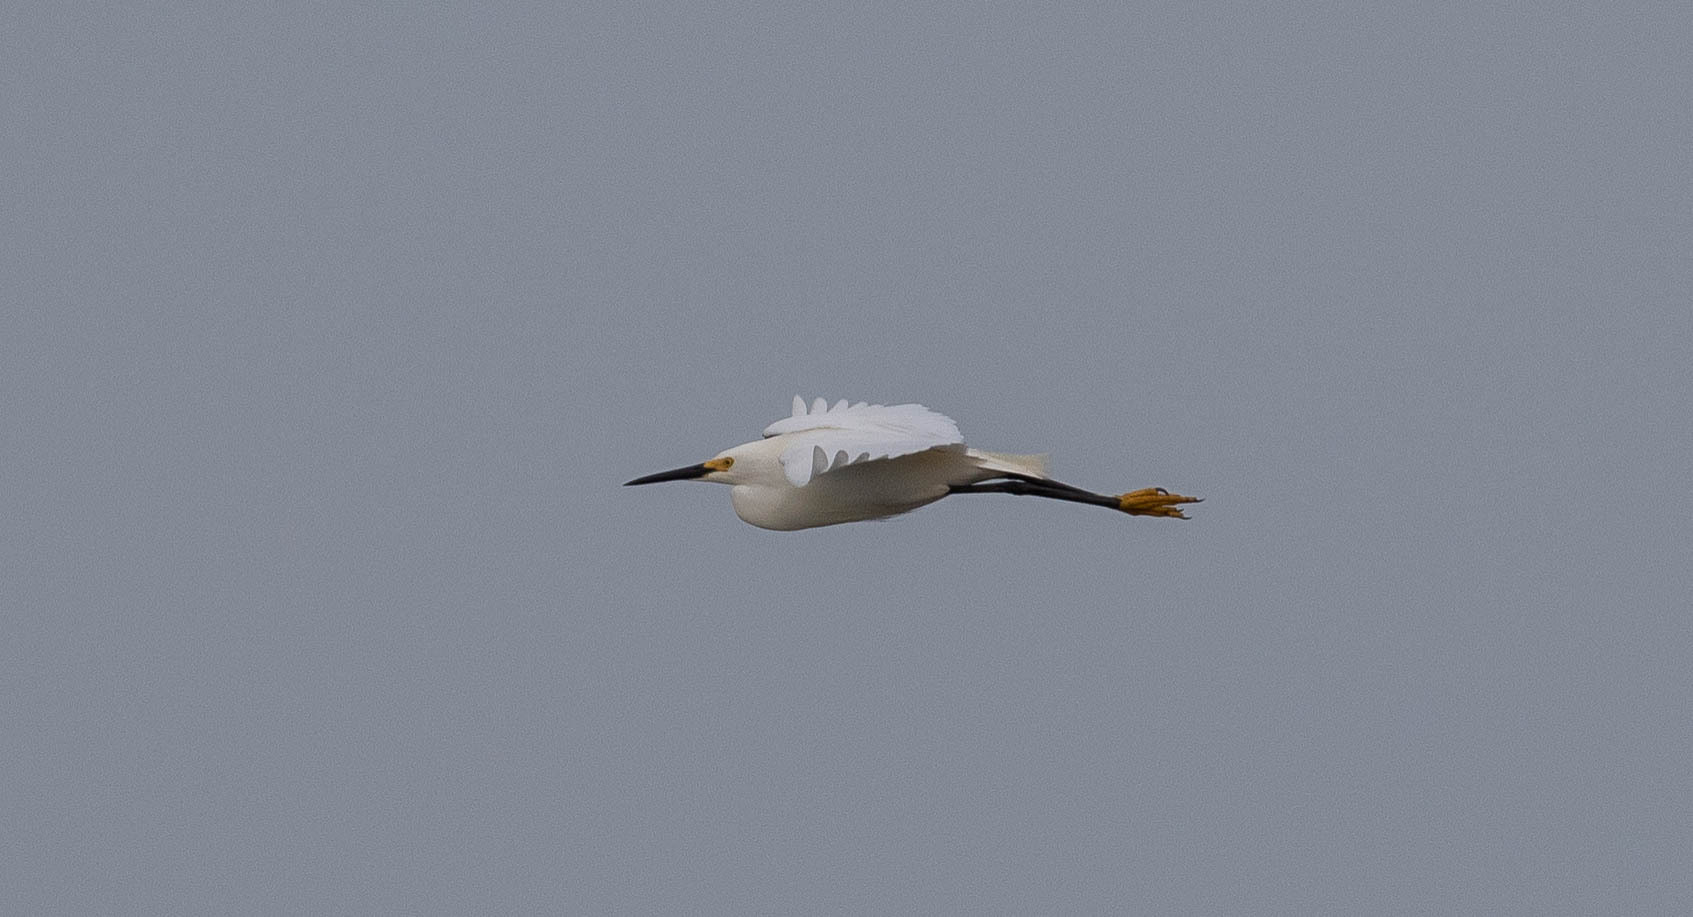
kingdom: Animalia
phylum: Chordata
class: Aves
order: Pelecaniformes
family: Ardeidae
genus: Egretta
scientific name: Egretta thula
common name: Snowy egret
